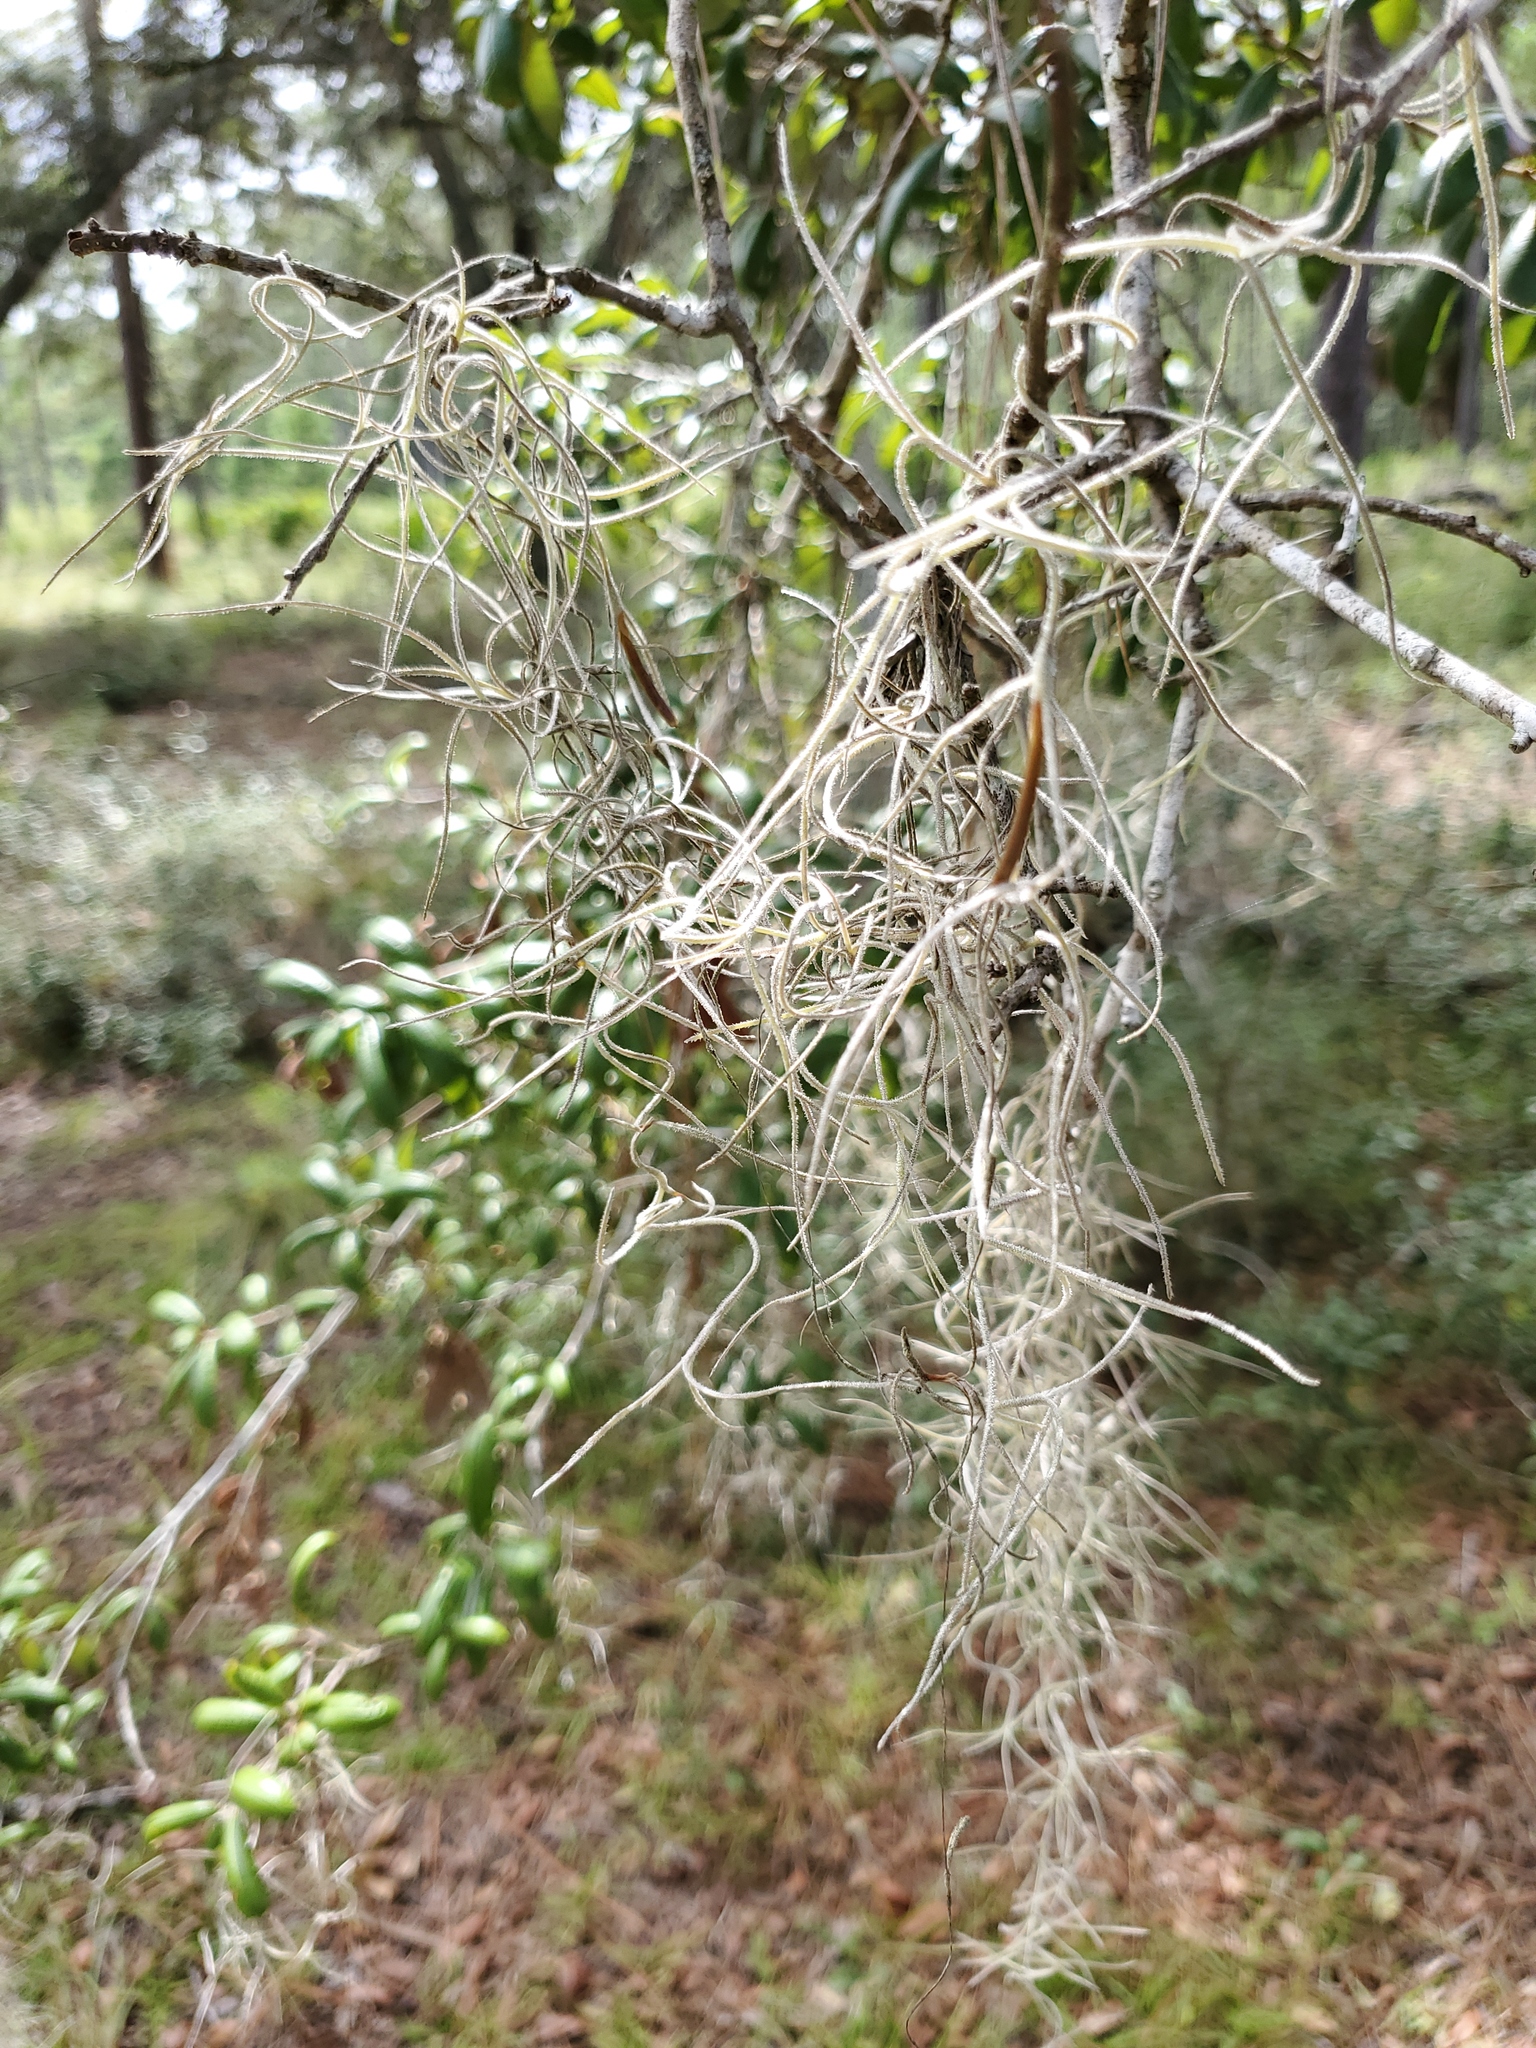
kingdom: Plantae
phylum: Tracheophyta
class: Liliopsida
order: Poales
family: Bromeliaceae
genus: Tillandsia
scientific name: Tillandsia usneoides
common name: Spanish moss
